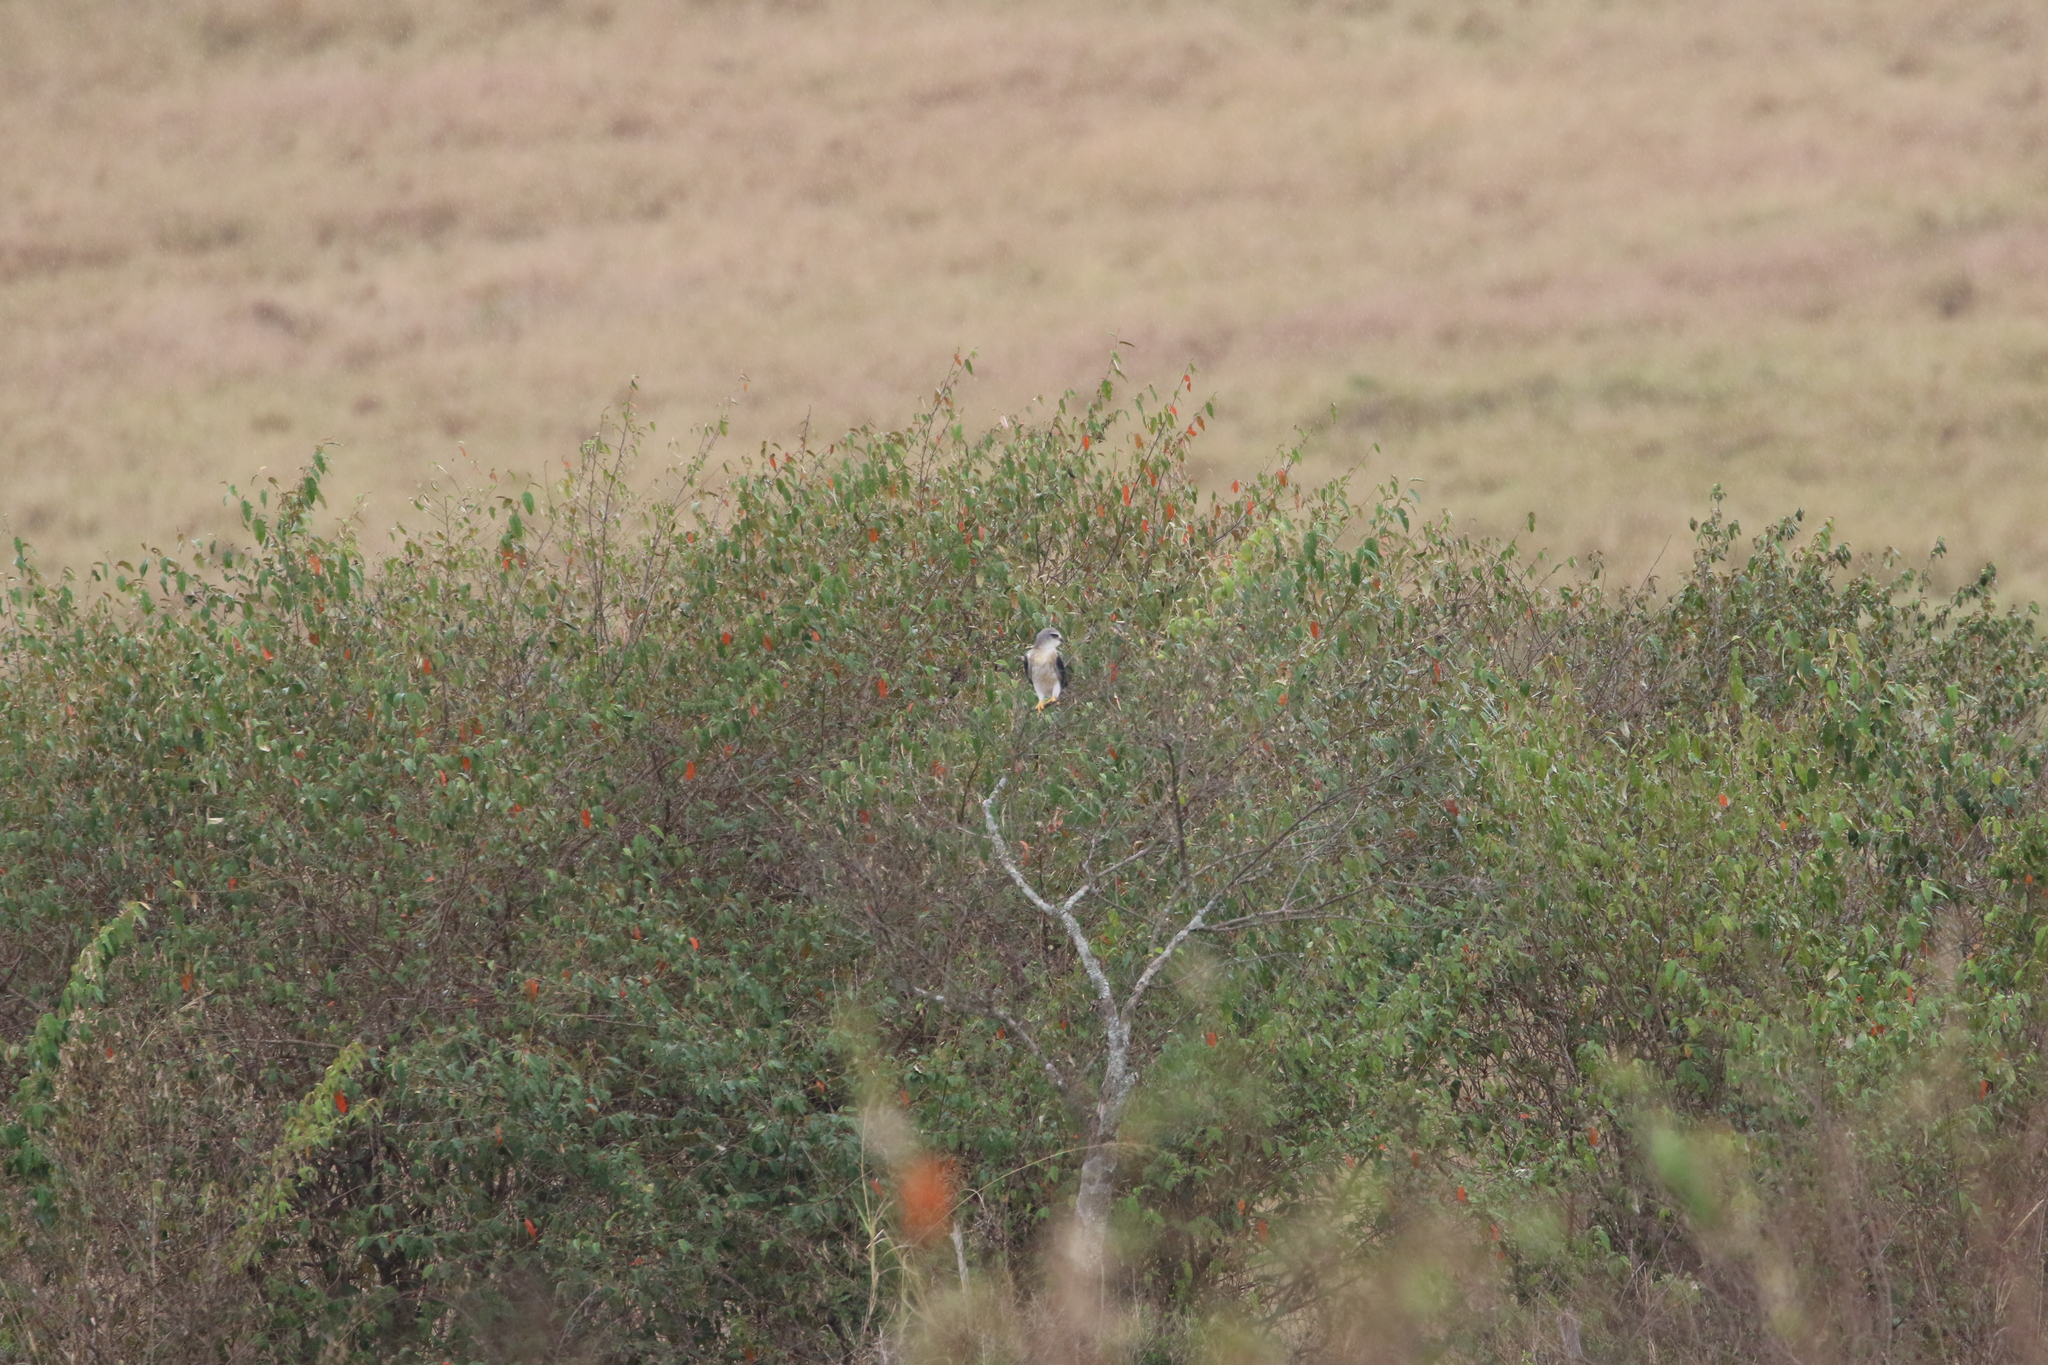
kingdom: Animalia
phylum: Chordata
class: Aves
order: Accipitriformes
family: Accipitridae
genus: Elanus
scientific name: Elanus caeruleus
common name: Black-winged kite
